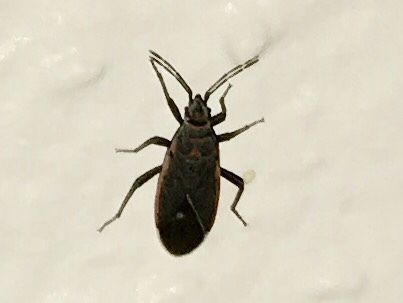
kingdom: Animalia
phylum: Arthropoda
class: Insecta
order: Hemiptera
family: Lygaeidae
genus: Melacoryphus
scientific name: Melacoryphus lateralis
